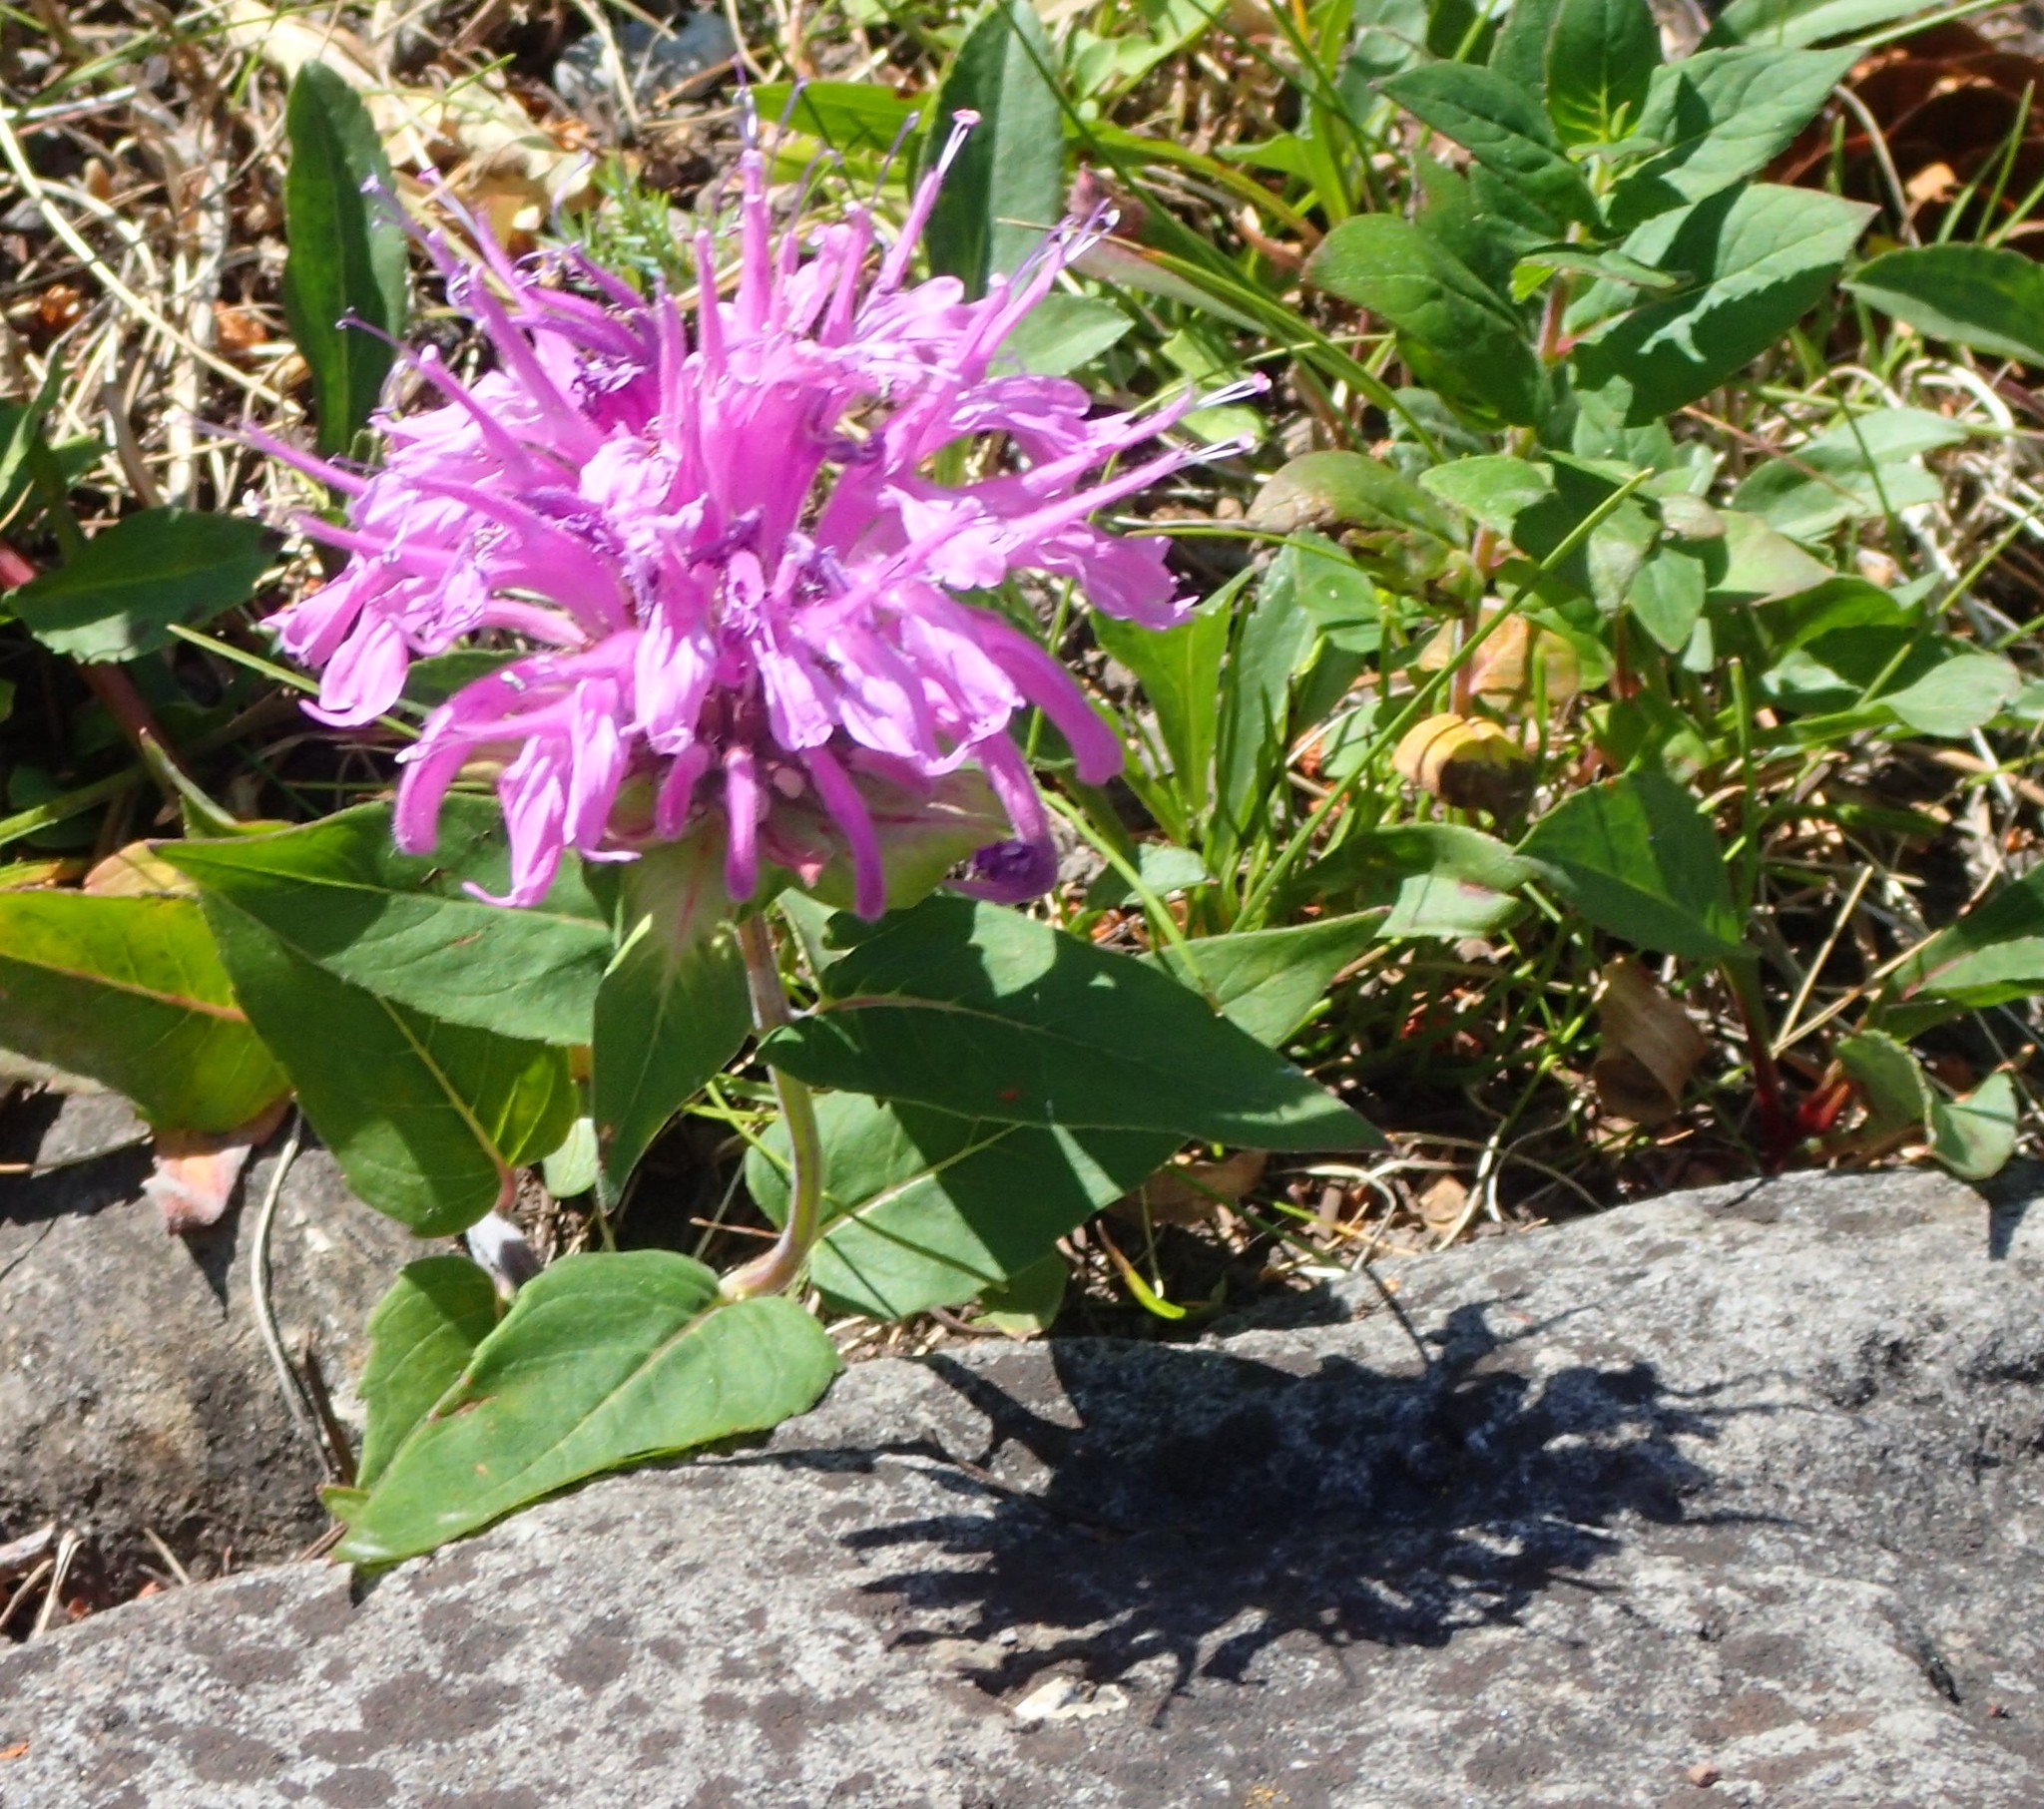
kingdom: Plantae
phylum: Tracheophyta
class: Magnoliopsida
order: Lamiales
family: Lamiaceae
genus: Monarda
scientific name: Monarda fistulosa
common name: Purple beebalm
